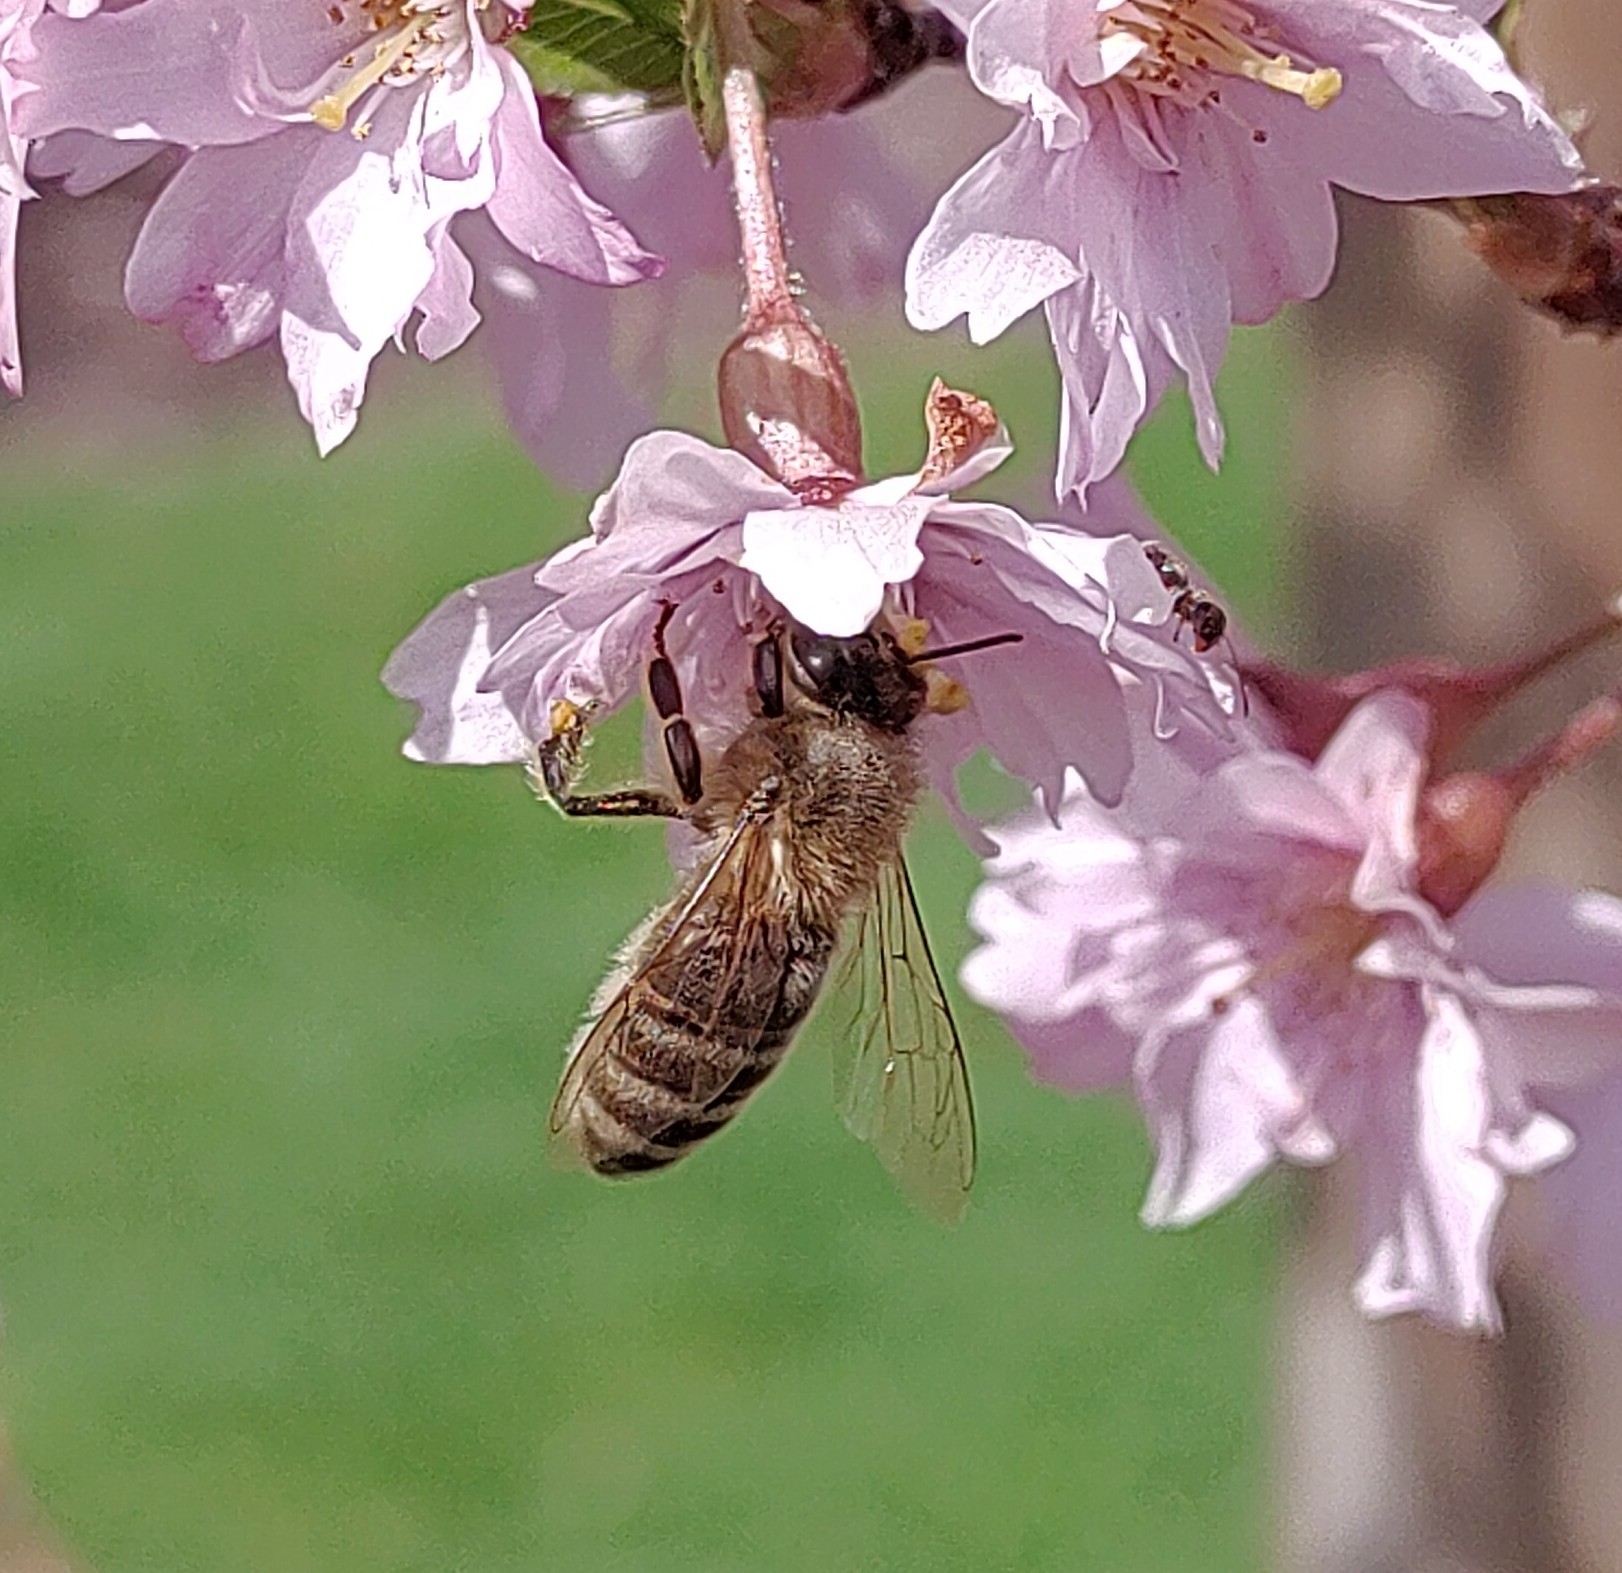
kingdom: Animalia
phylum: Arthropoda
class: Insecta
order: Hymenoptera
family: Apidae
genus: Apis
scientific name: Apis mellifera
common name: Honey bee
